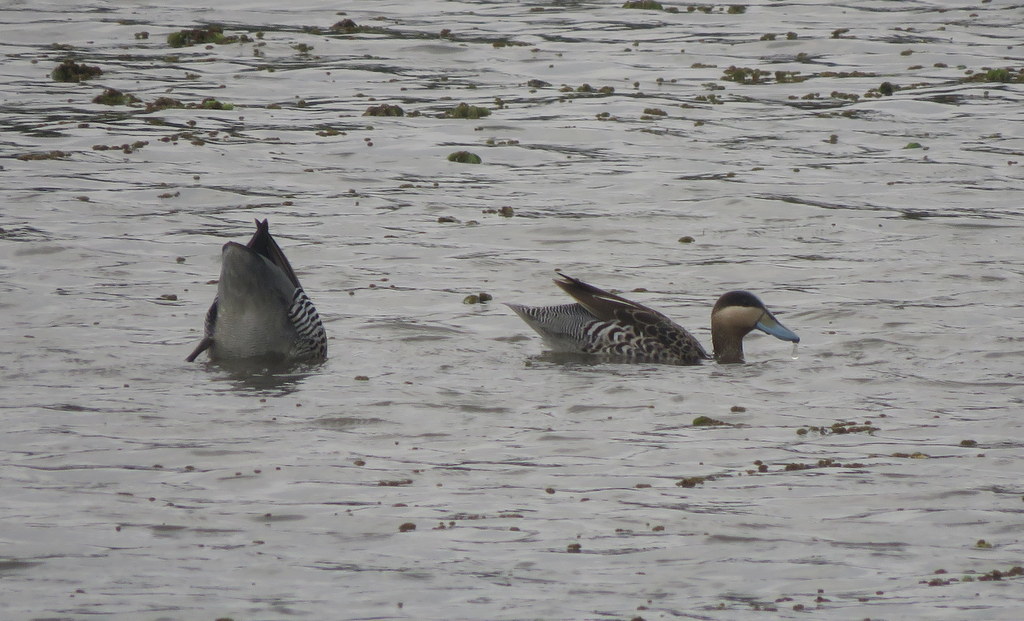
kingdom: Animalia
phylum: Chordata
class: Aves
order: Anseriformes
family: Anatidae
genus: Spatula
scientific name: Spatula versicolor
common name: Silver teal
